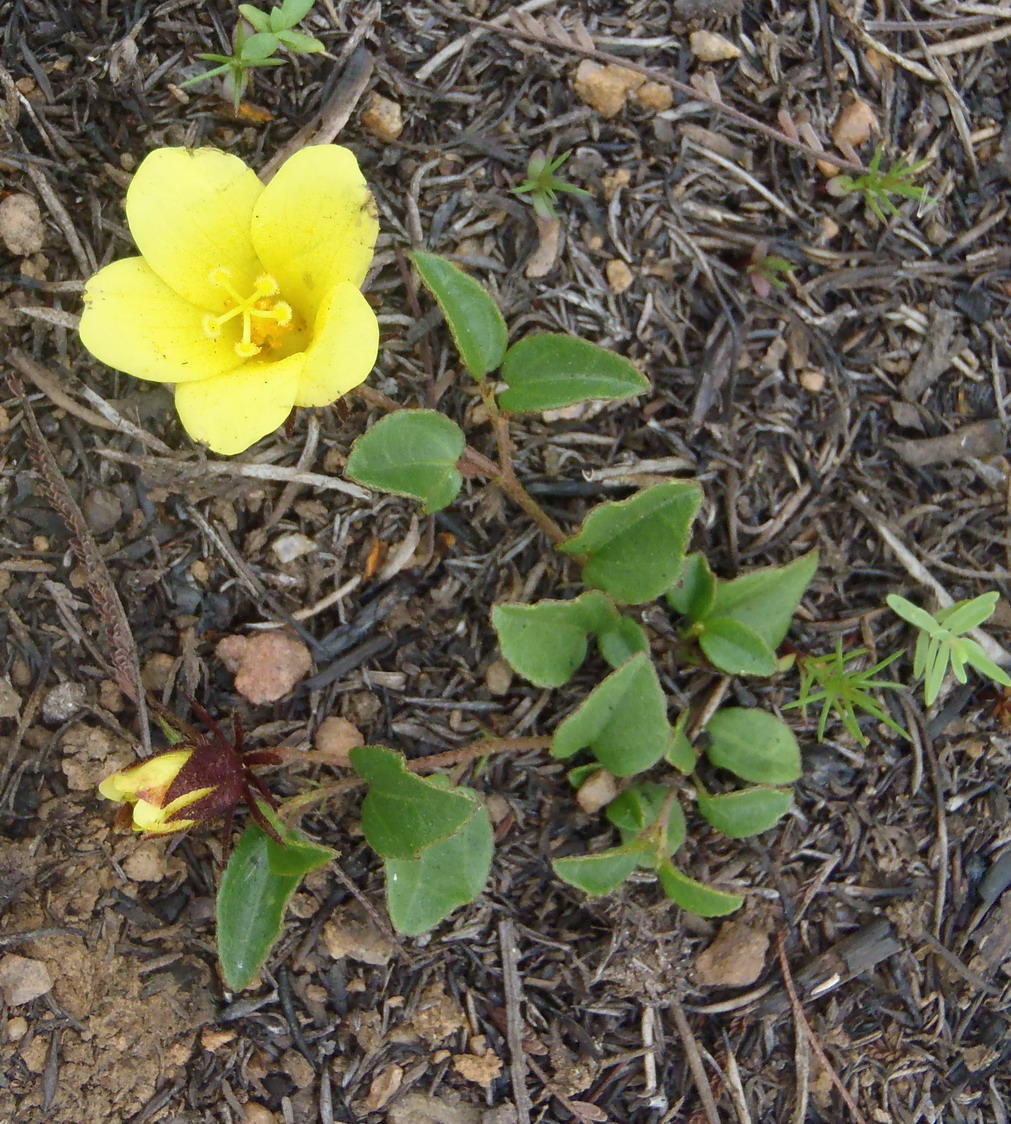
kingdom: Plantae
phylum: Tracheophyta
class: Magnoliopsida
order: Malvales
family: Malvaceae
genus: Hibiscus
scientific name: Hibiscus aethiopicus
